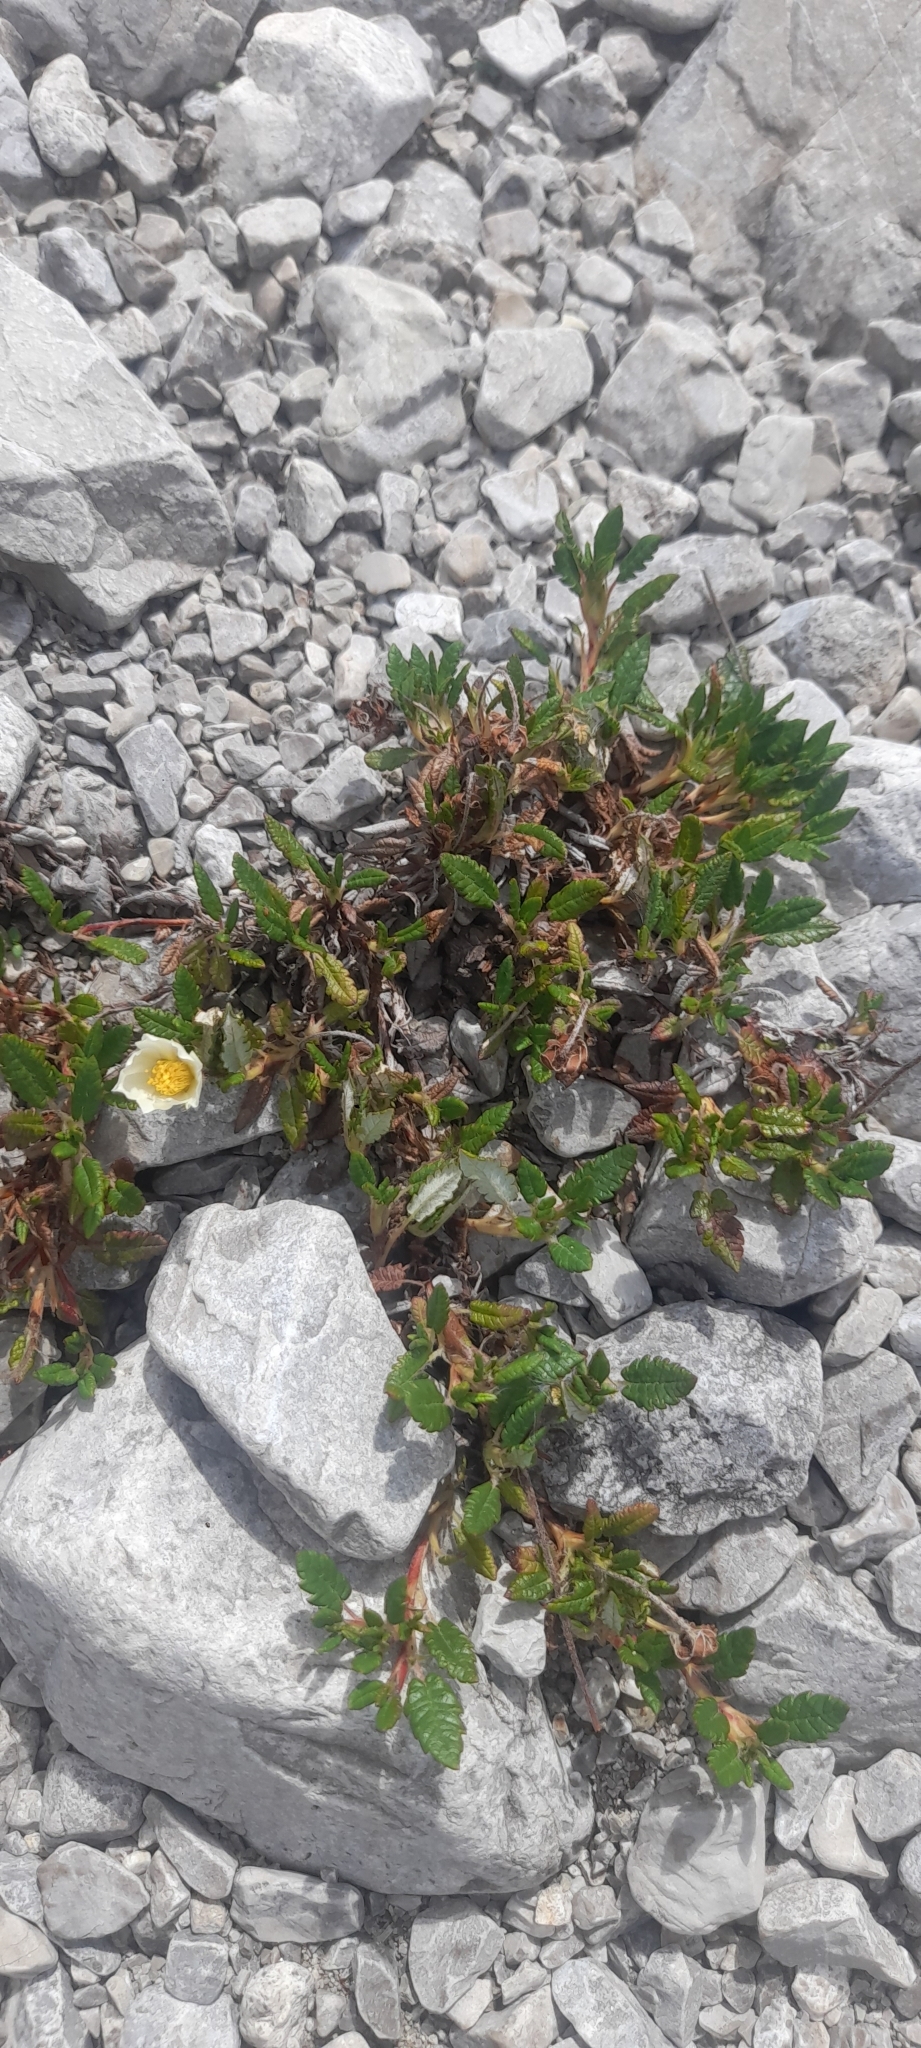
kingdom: Plantae
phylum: Tracheophyta
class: Magnoliopsida
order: Rosales
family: Rosaceae
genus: Dryas
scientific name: Dryas octopetala
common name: Eight-petal mountain-avens
